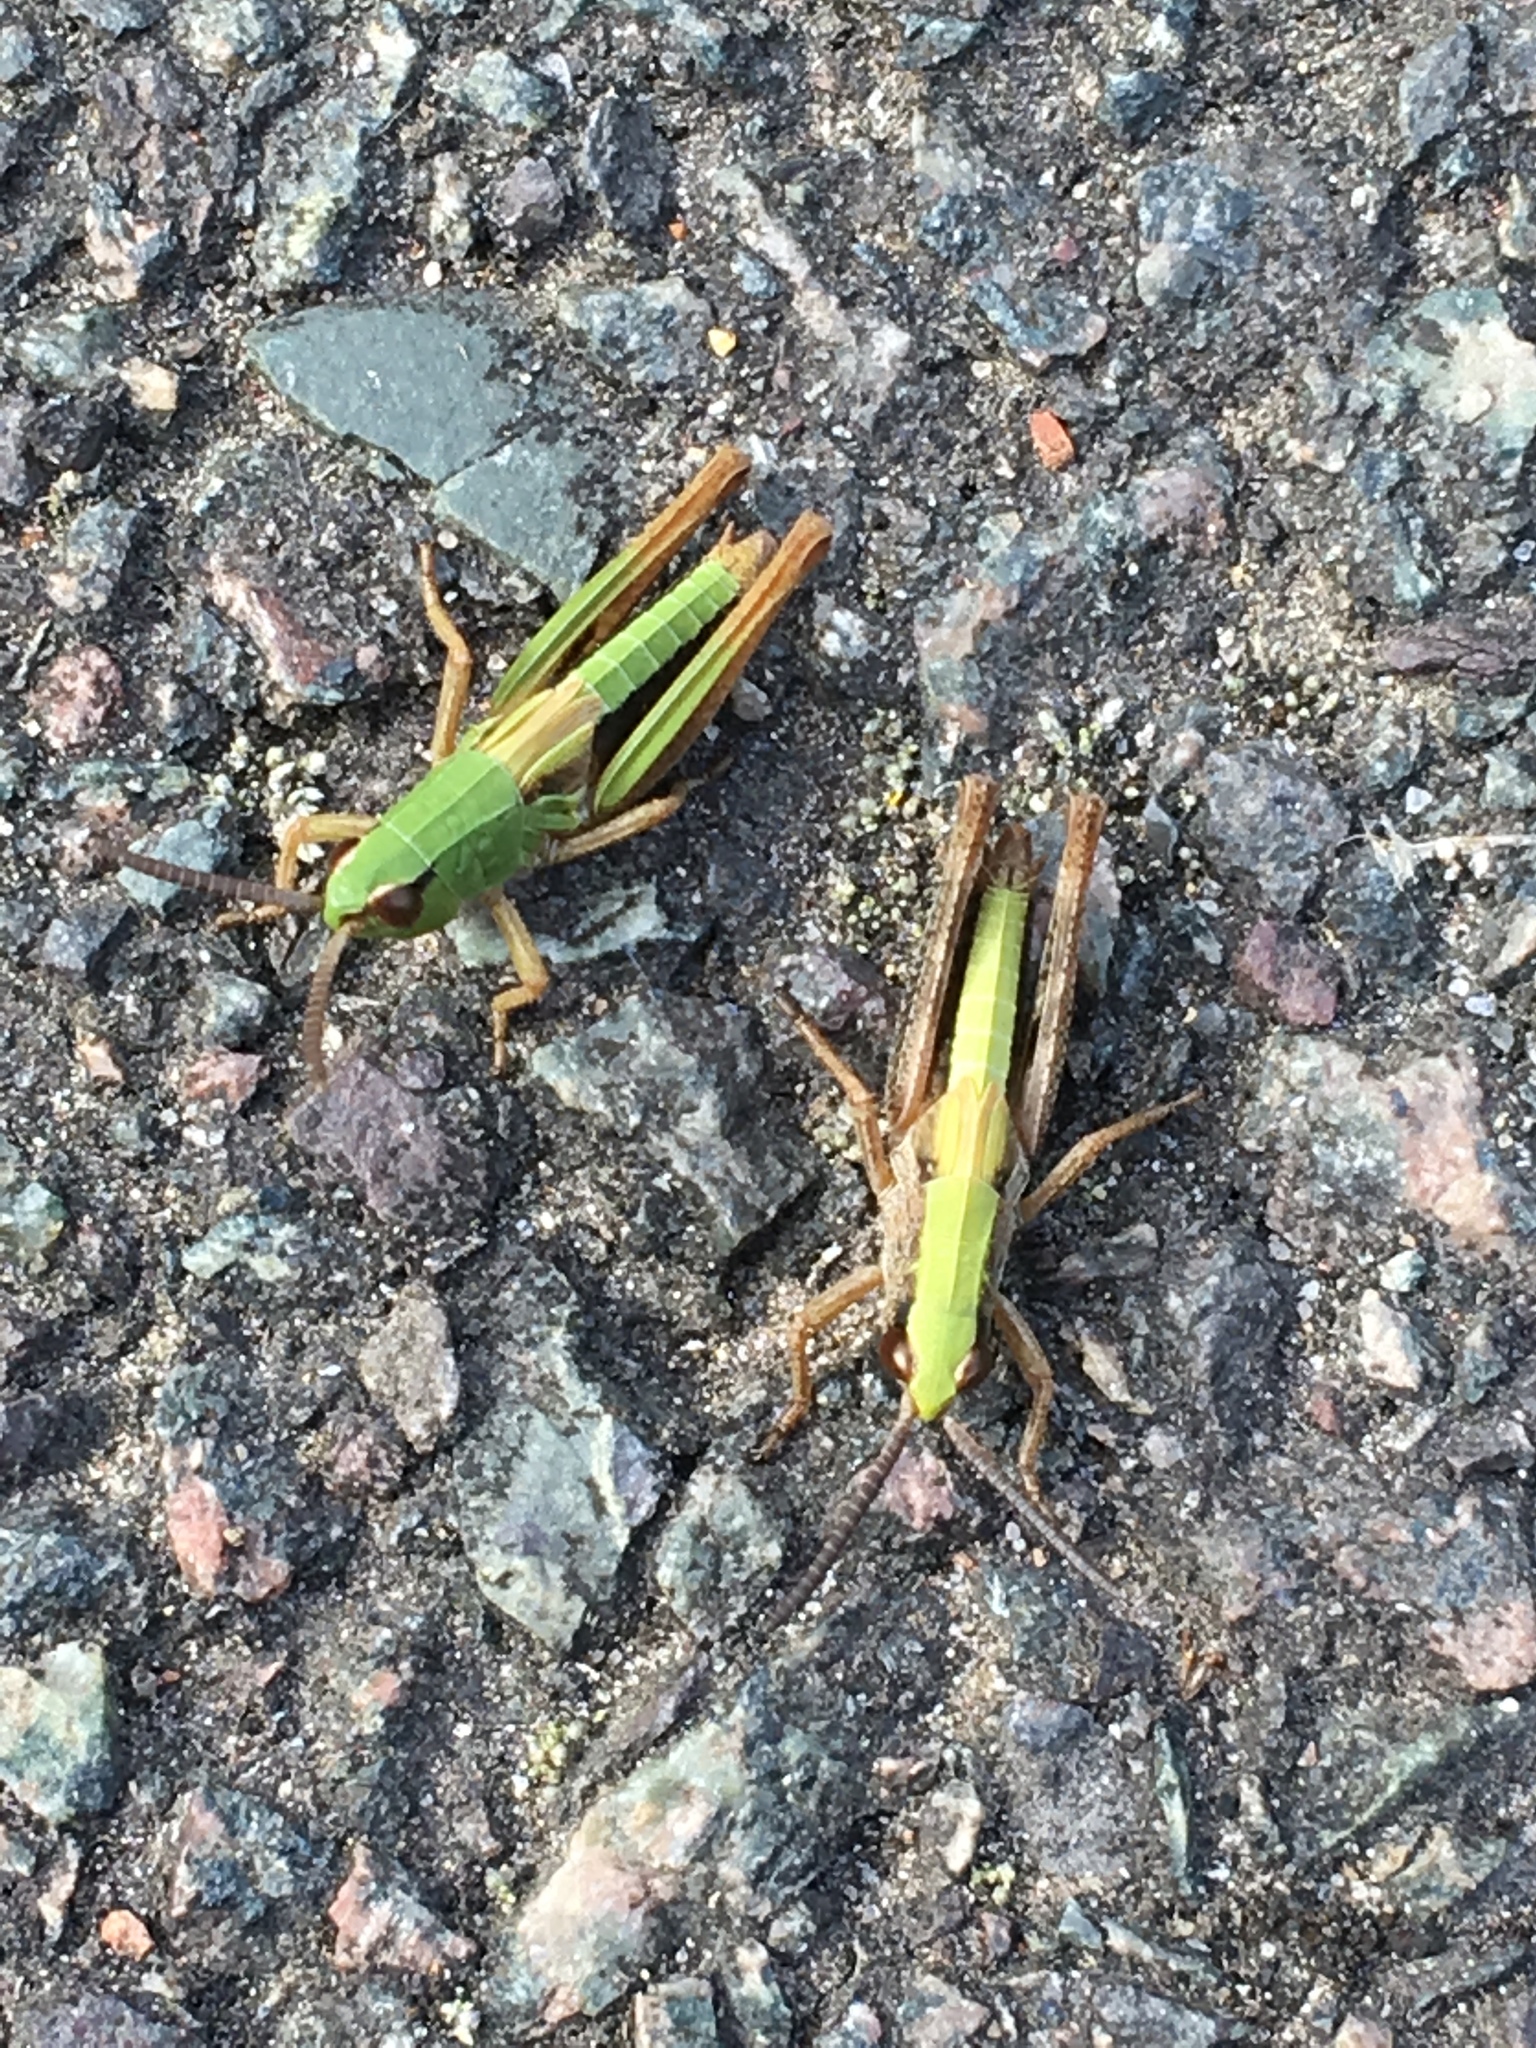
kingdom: Animalia
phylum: Arthropoda
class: Insecta
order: Orthoptera
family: Acrididae
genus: Pseudochorthippus
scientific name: Pseudochorthippus parallelus
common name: Meadow grasshopper
